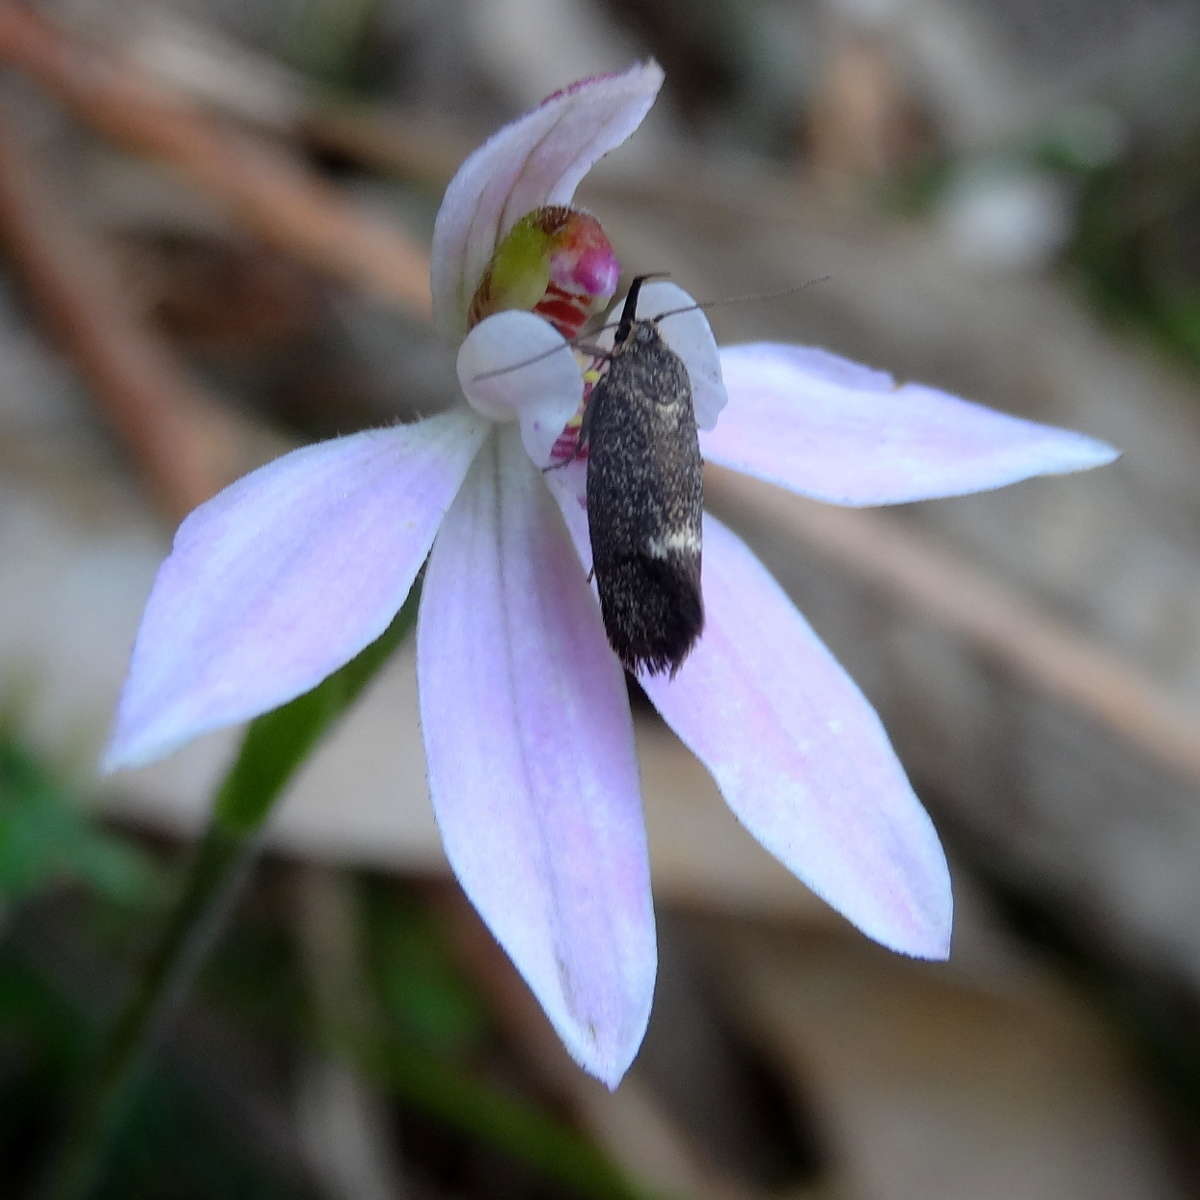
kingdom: Plantae
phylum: Tracheophyta
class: Liliopsida
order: Asparagales
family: Orchidaceae
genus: Caladenia
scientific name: Caladenia carnea
